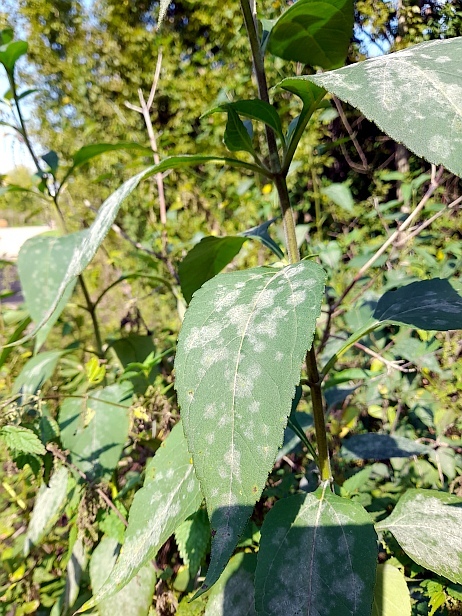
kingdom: Plantae
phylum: Tracheophyta
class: Magnoliopsida
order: Asterales
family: Asteraceae
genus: Helianthus
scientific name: Helianthus tuberosus
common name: Jerusalem artichoke
